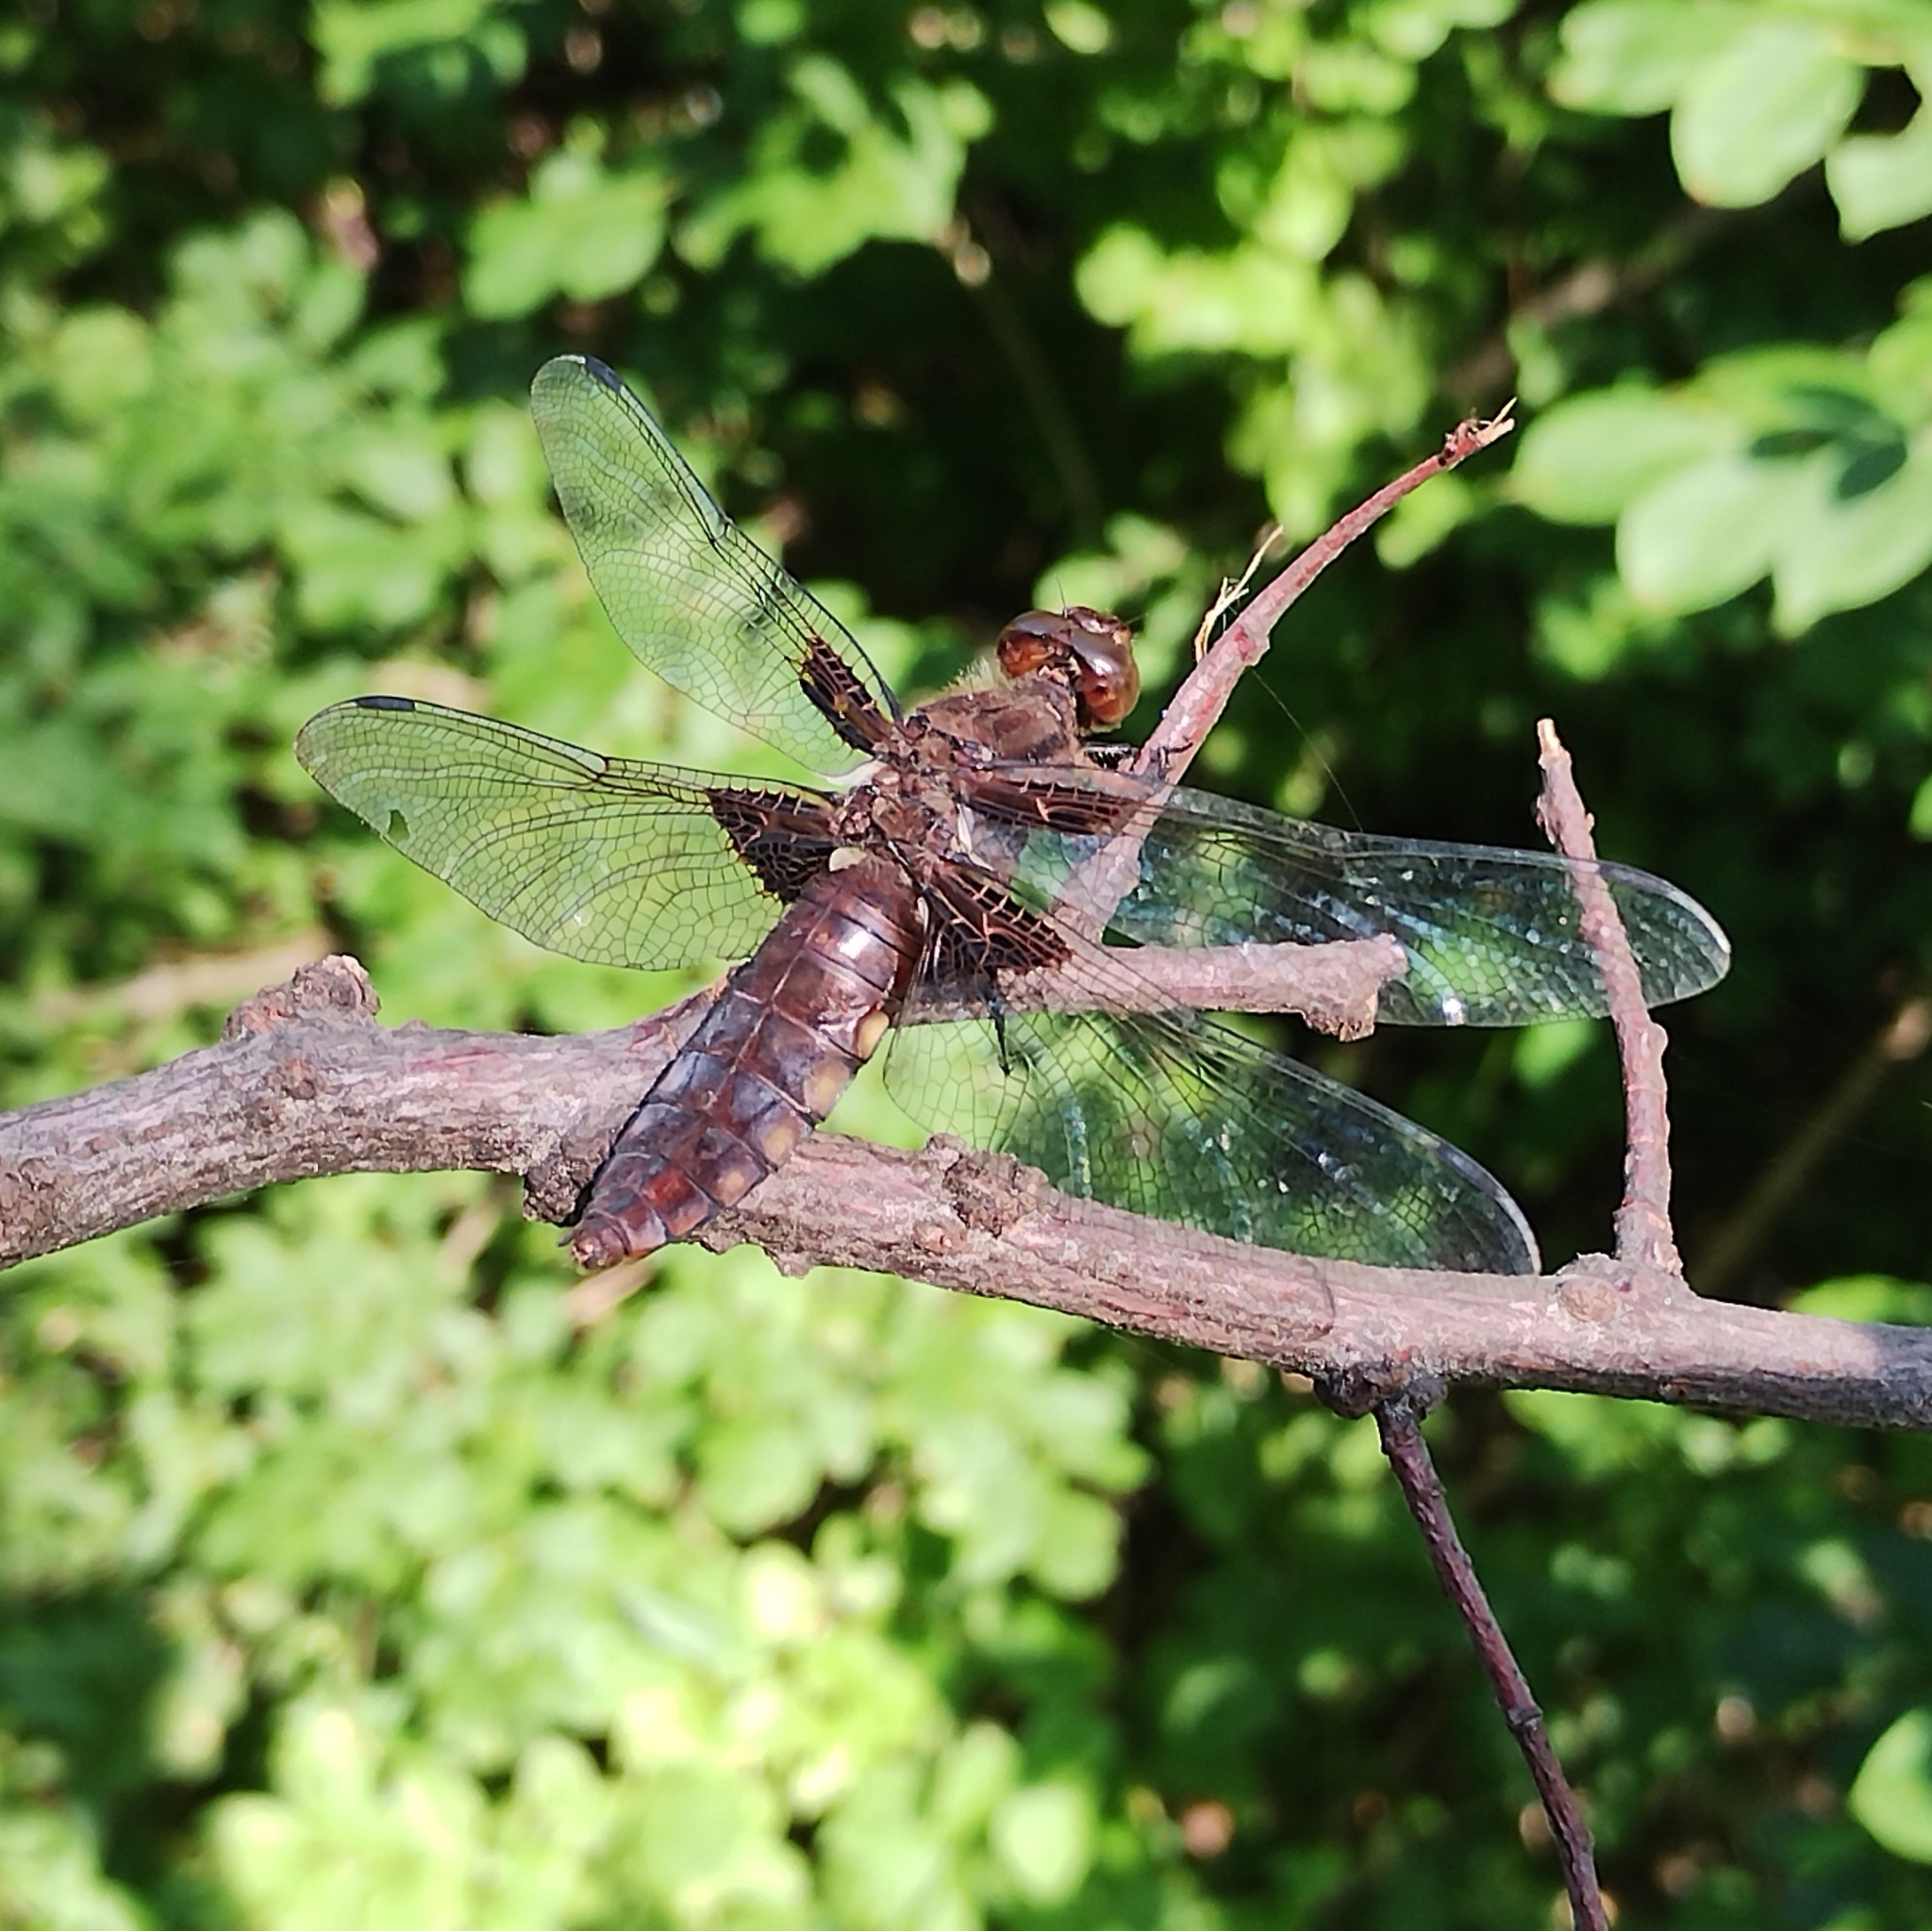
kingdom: Animalia
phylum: Arthropoda
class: Insecta
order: Odonata
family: Libellulidae
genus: Libellula
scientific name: Libellula depressa
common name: Broad-bodied chaser
